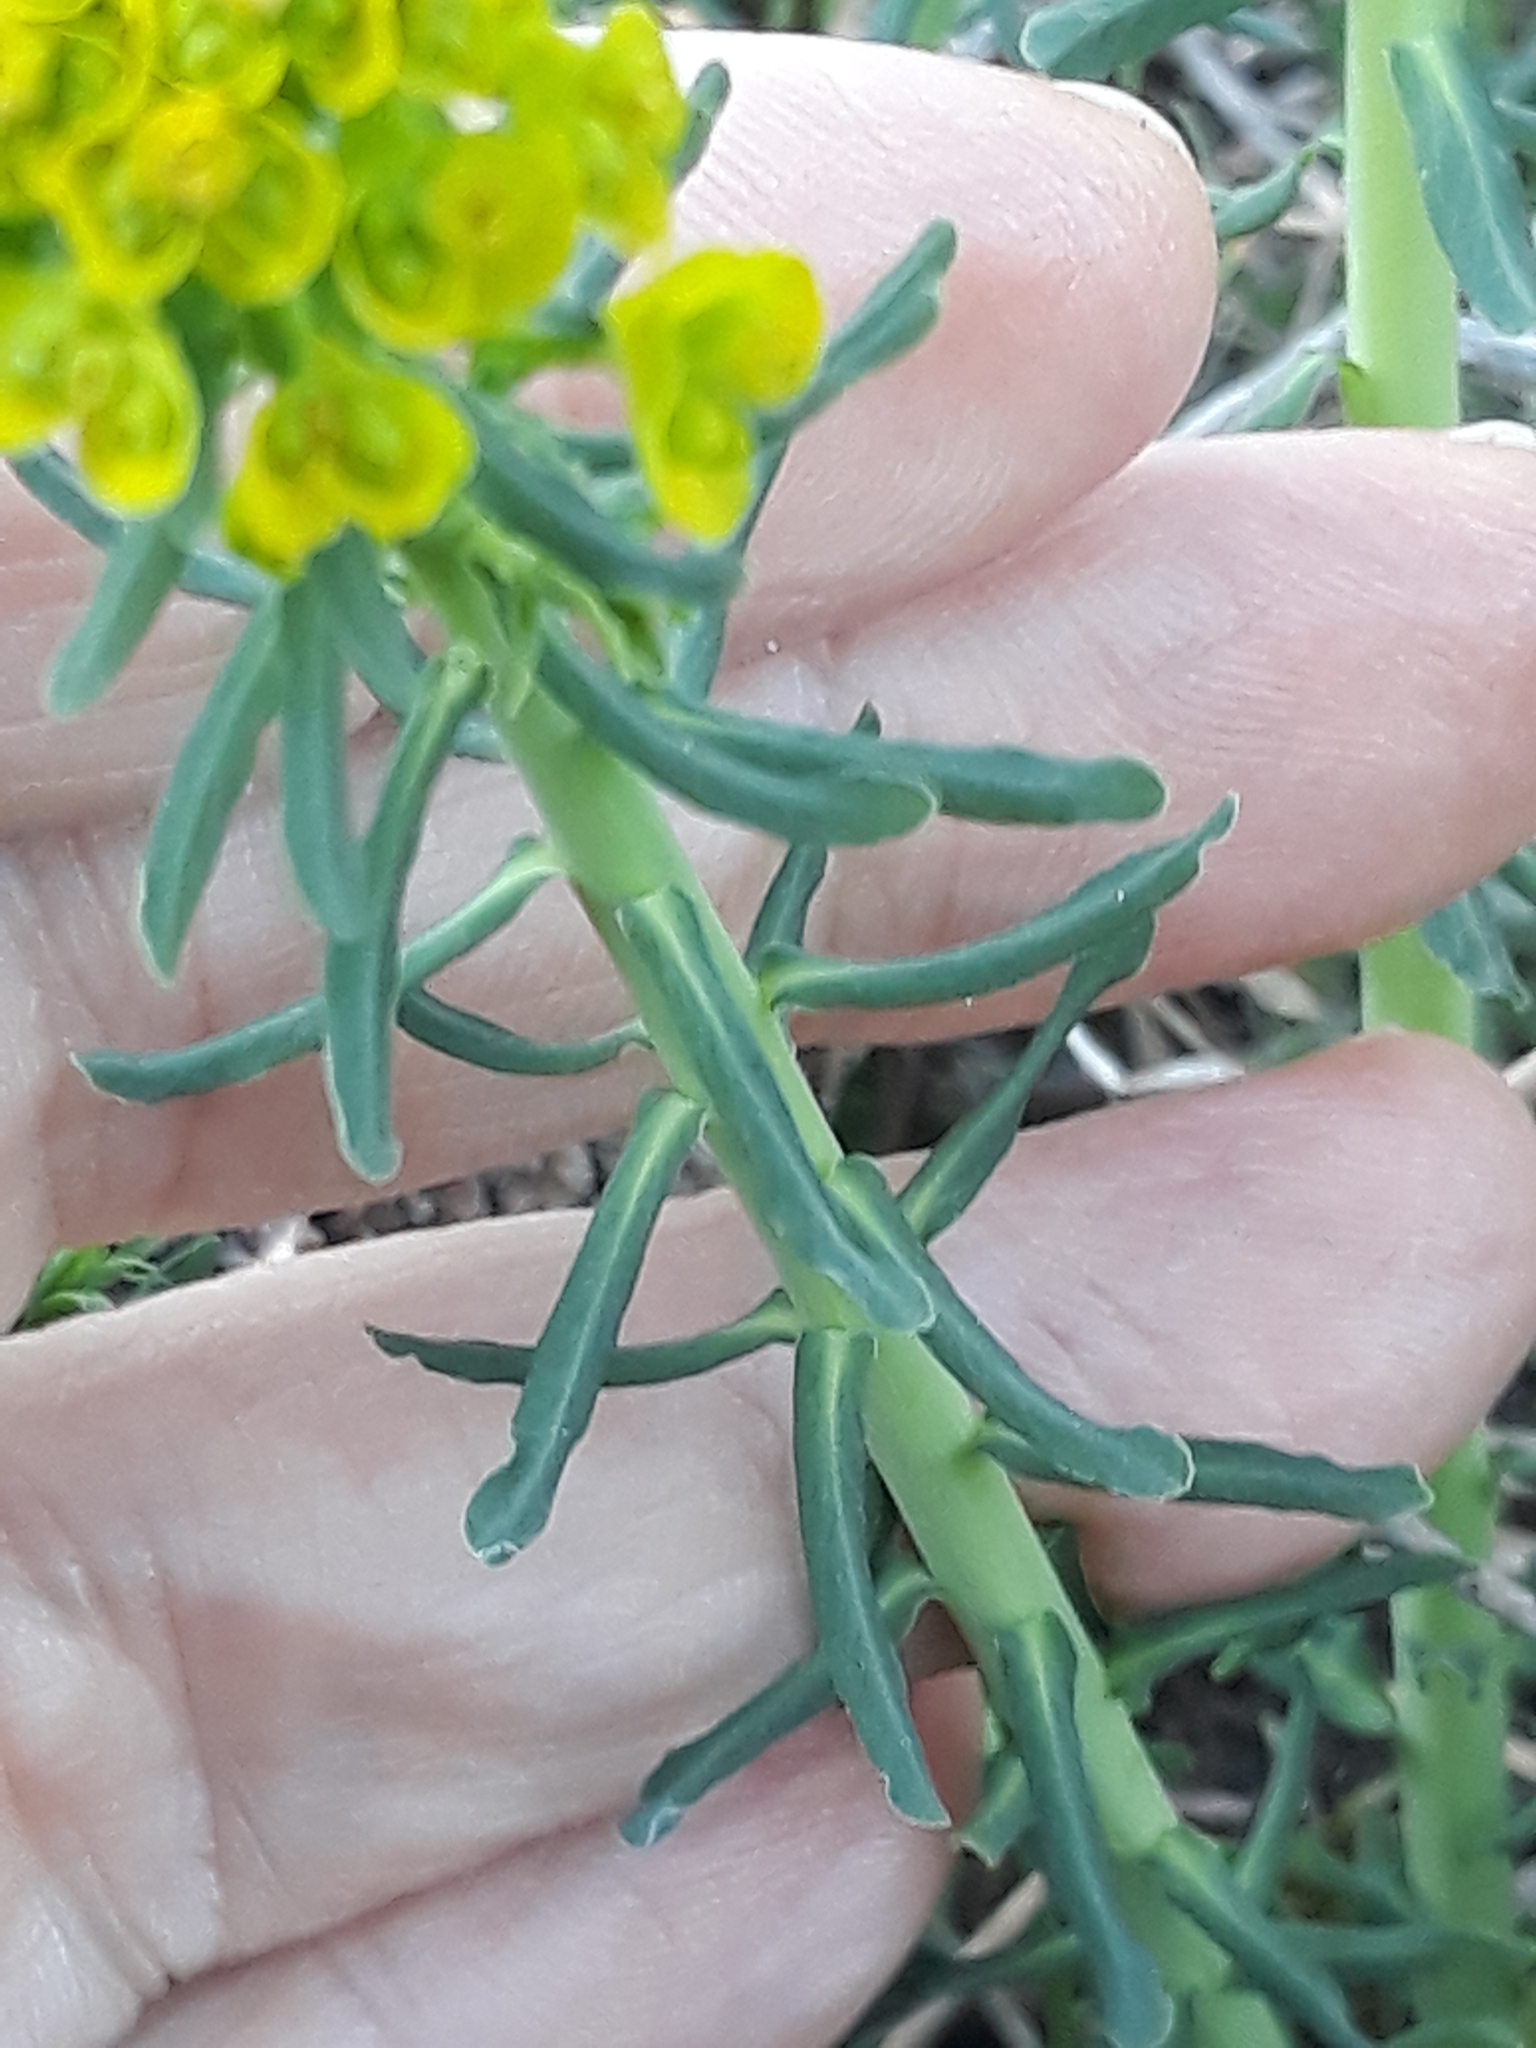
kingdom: Plantae
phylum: Tracheophyta
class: Magnoliopsida
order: Malpighiales
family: Euphorbiaceae
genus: Euphorbia
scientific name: Euphorbia cyparissias
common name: Cypress spurge
